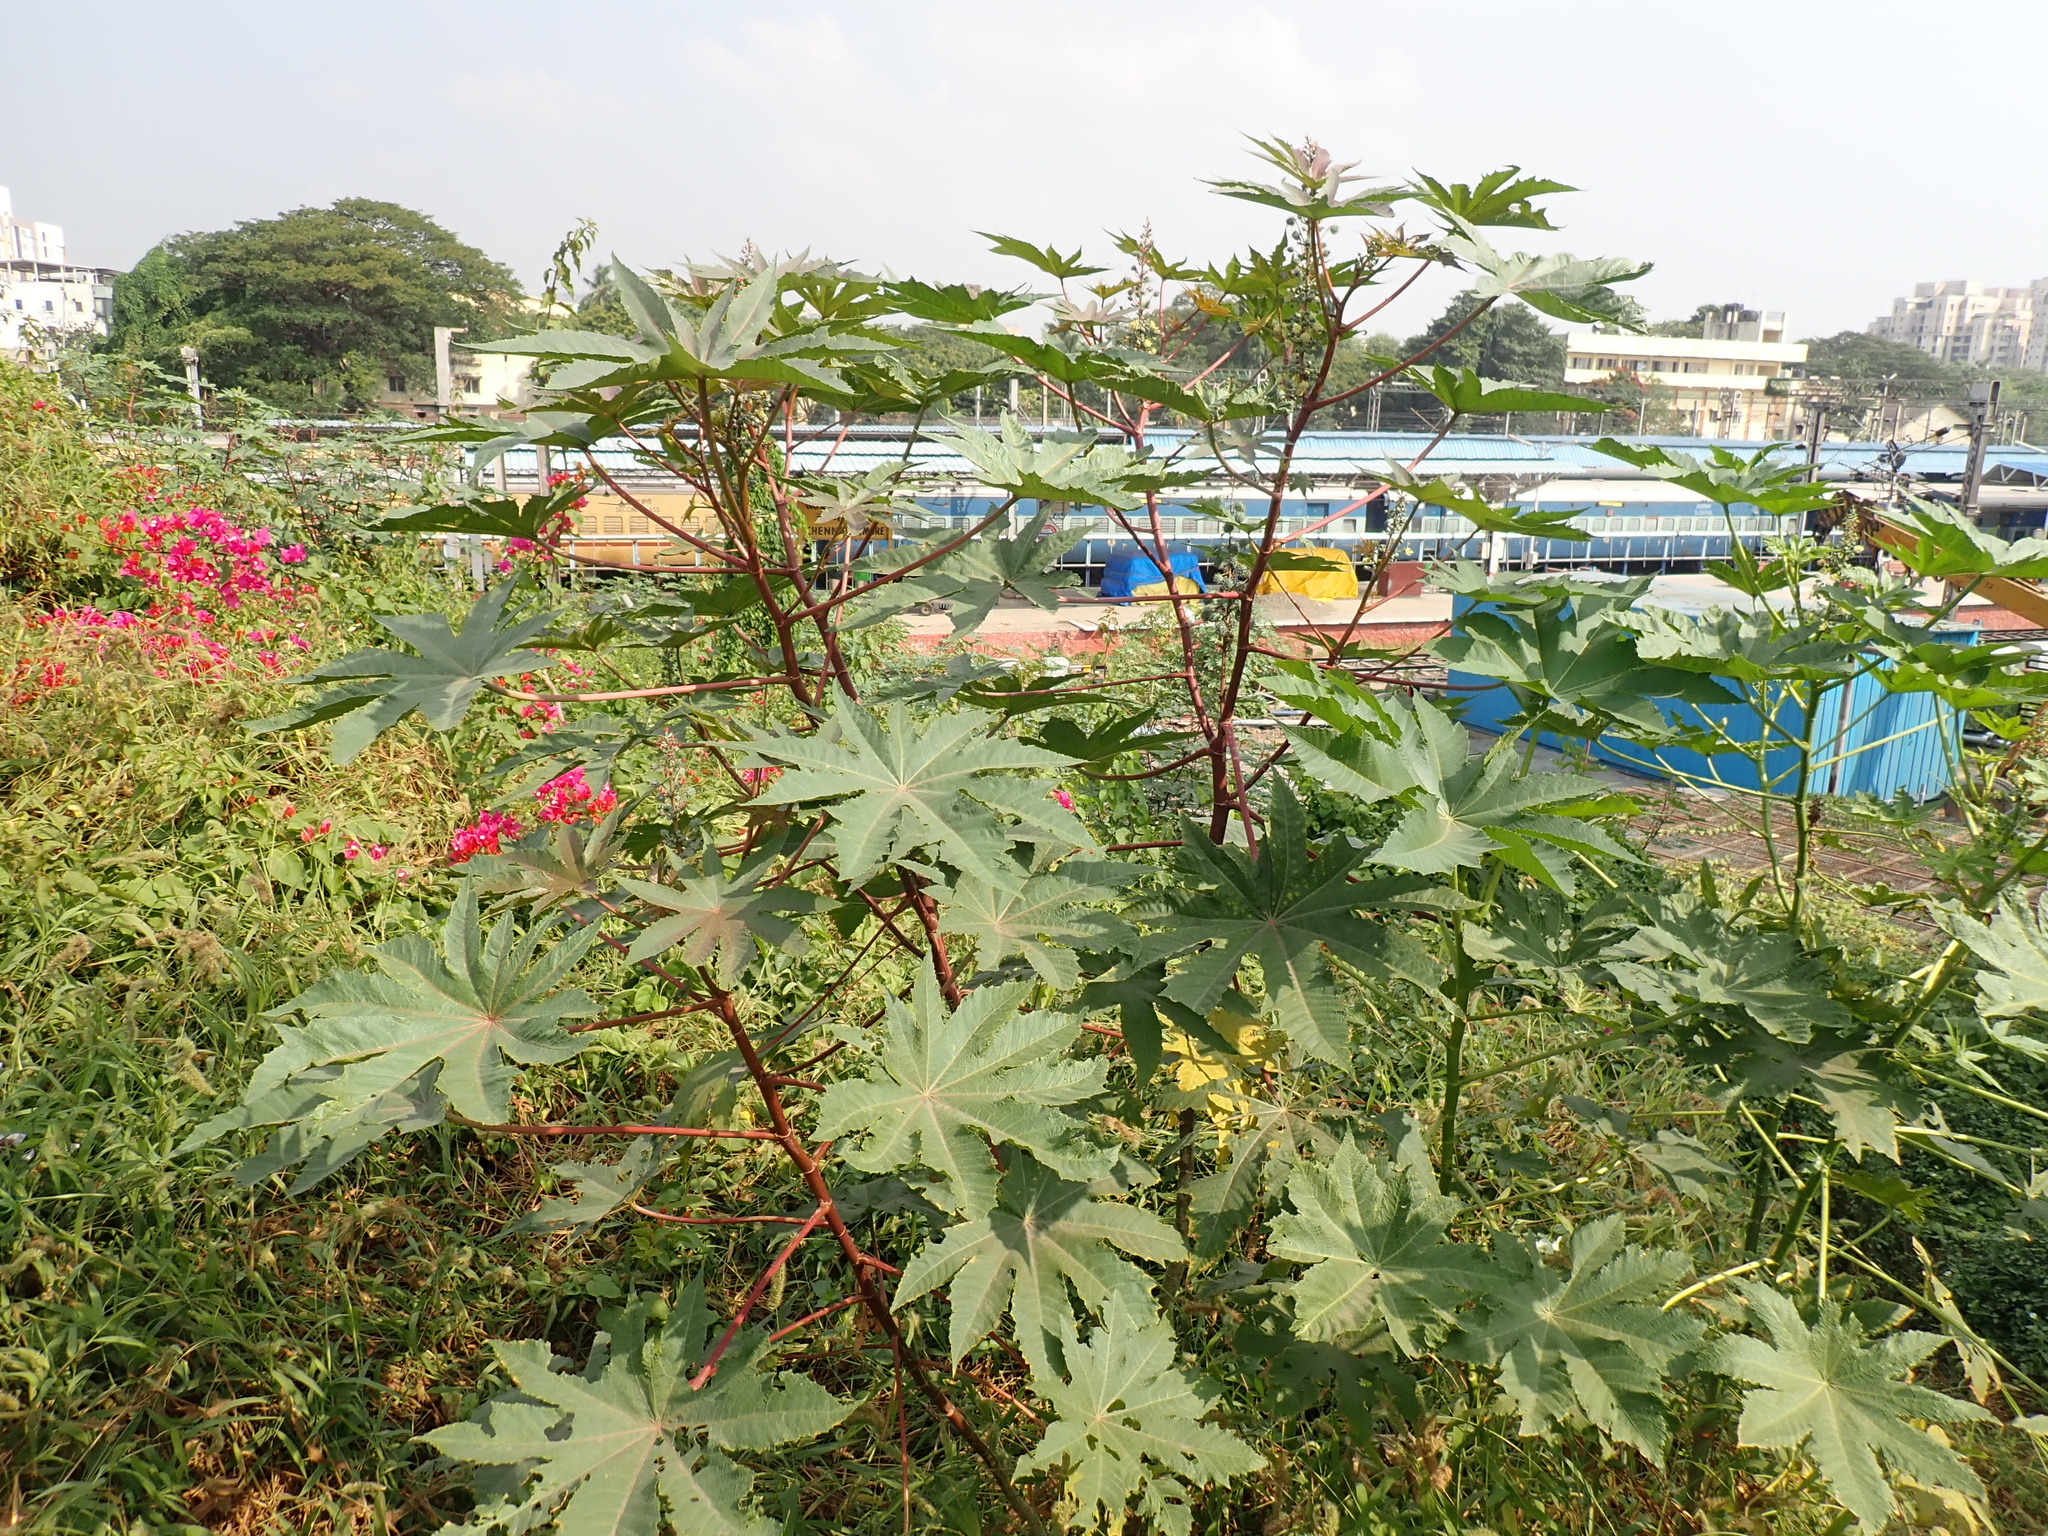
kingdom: Plantae
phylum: Tracheophyta
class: Magnoliopsida
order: Malpighiales
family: Euphorbiaceae
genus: Ricinus
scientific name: Ricinus communis
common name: Castor-oil-plant
